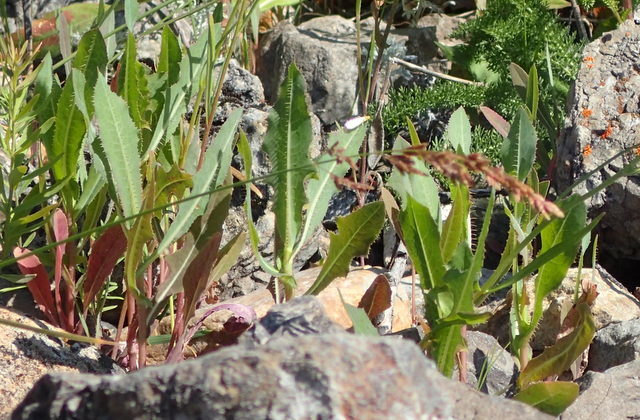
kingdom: Plantae
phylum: Tracheophyta
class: Magnoliopsida
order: Asterales
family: Asteraceae
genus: Lactuca
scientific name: Lactuca serriola
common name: Prickly lettuce
